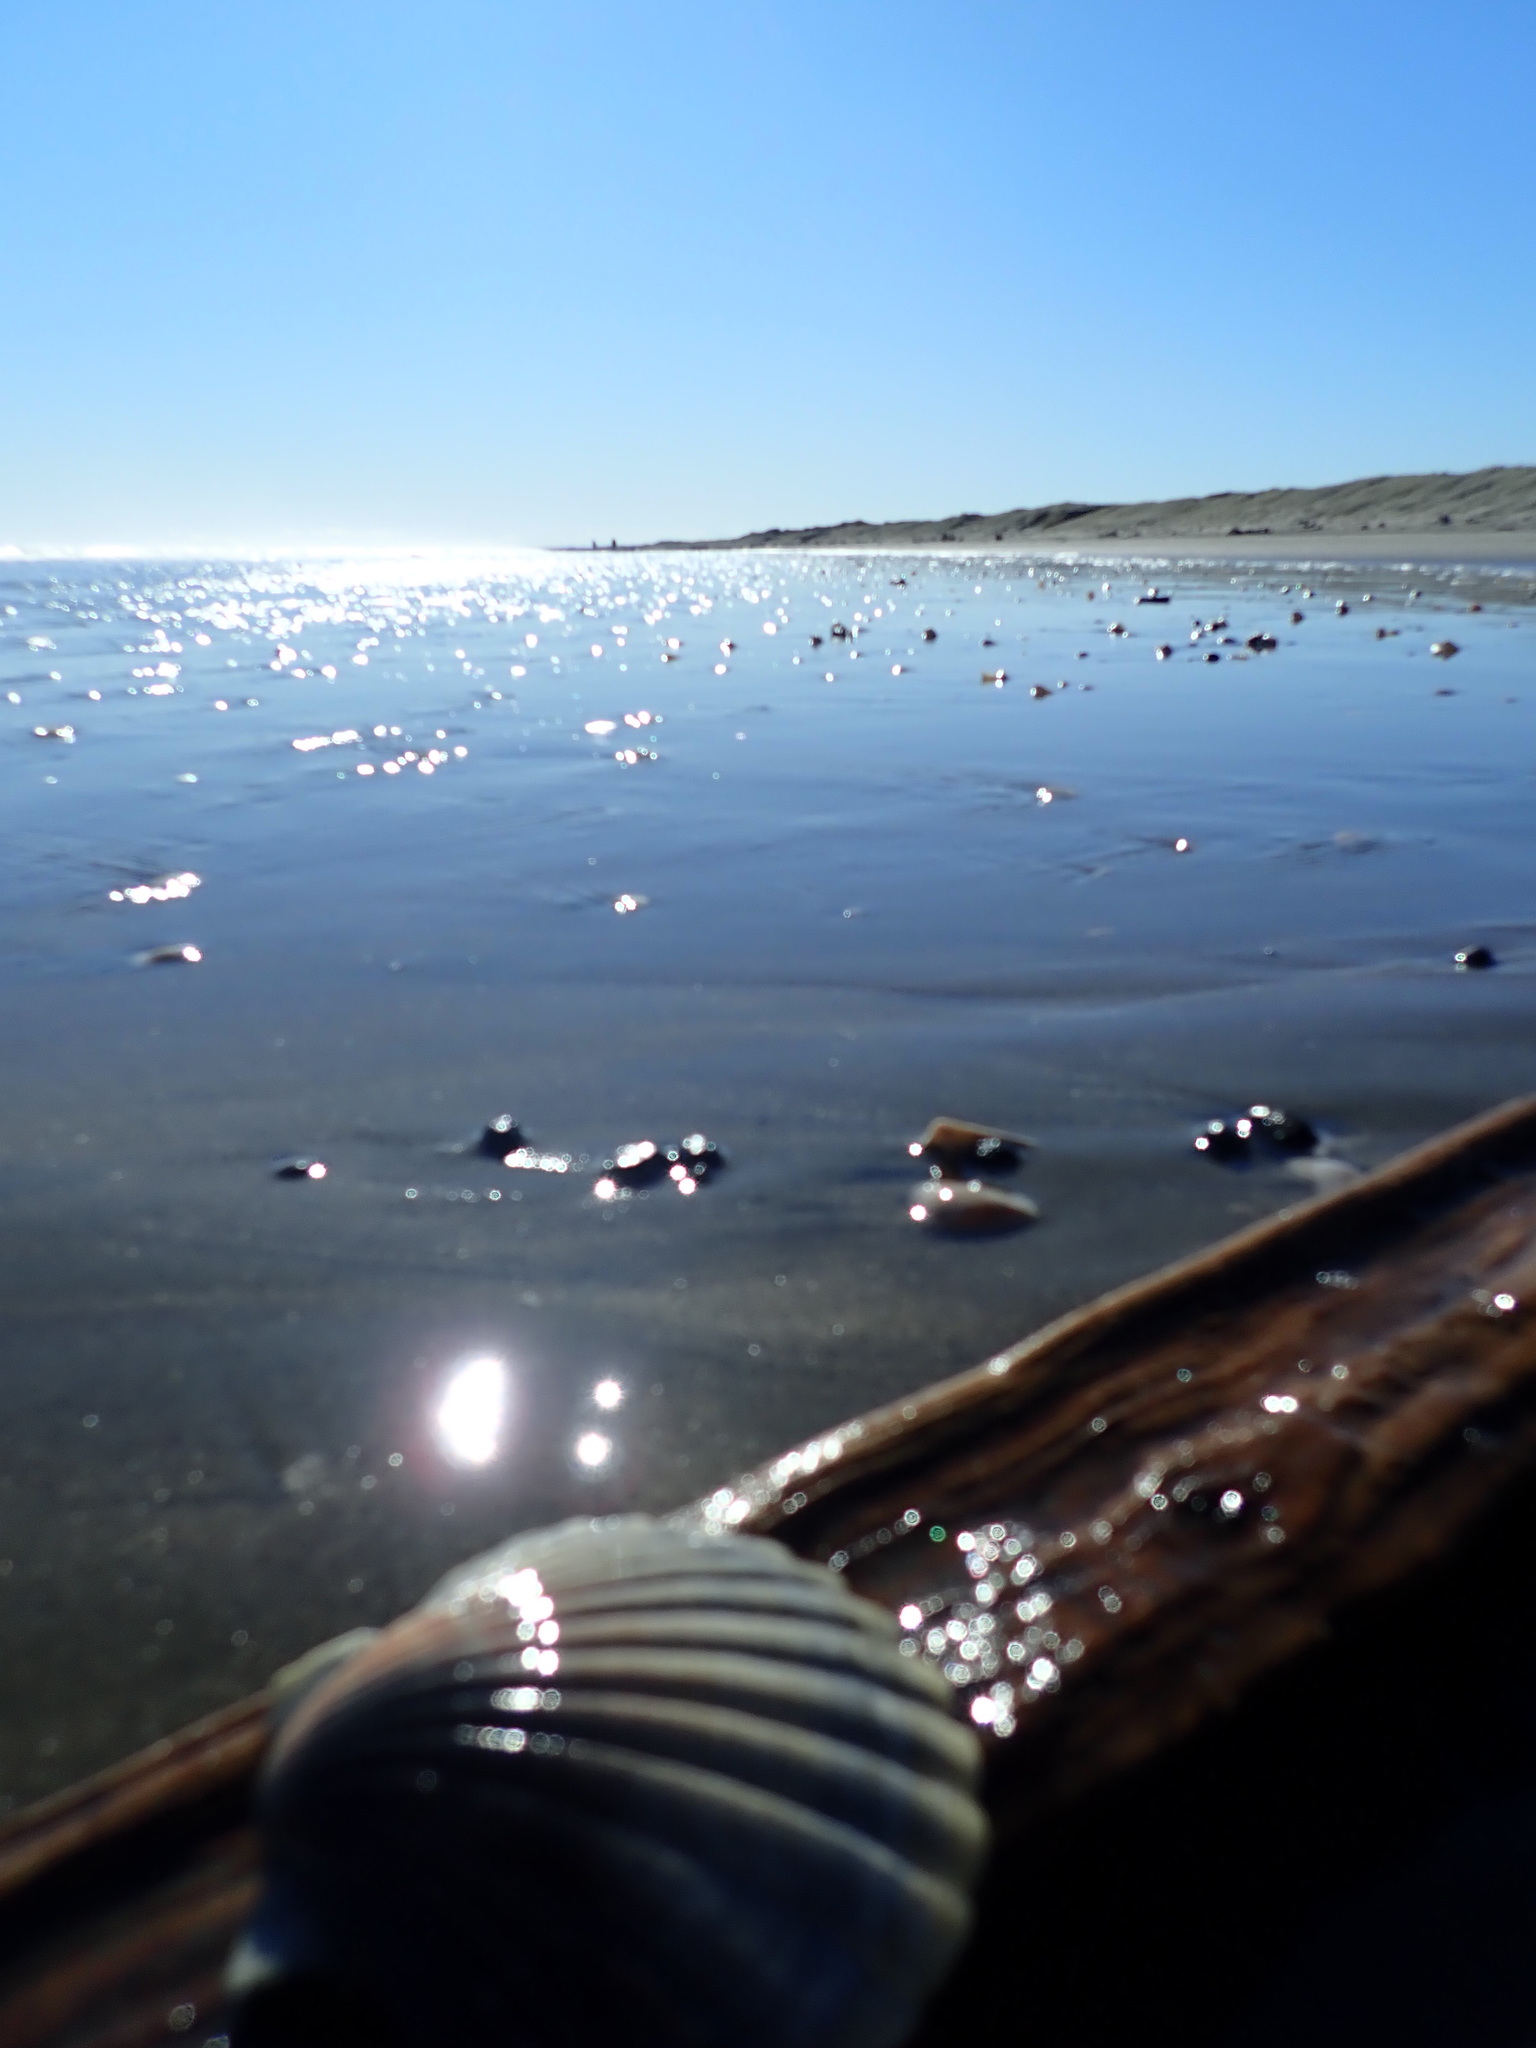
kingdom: Animalia
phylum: Mollusca
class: Bivalvia
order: Pectinida
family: Pectinidae
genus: Pecten
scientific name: Pecten novaezelandiae
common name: New zealand scallop
